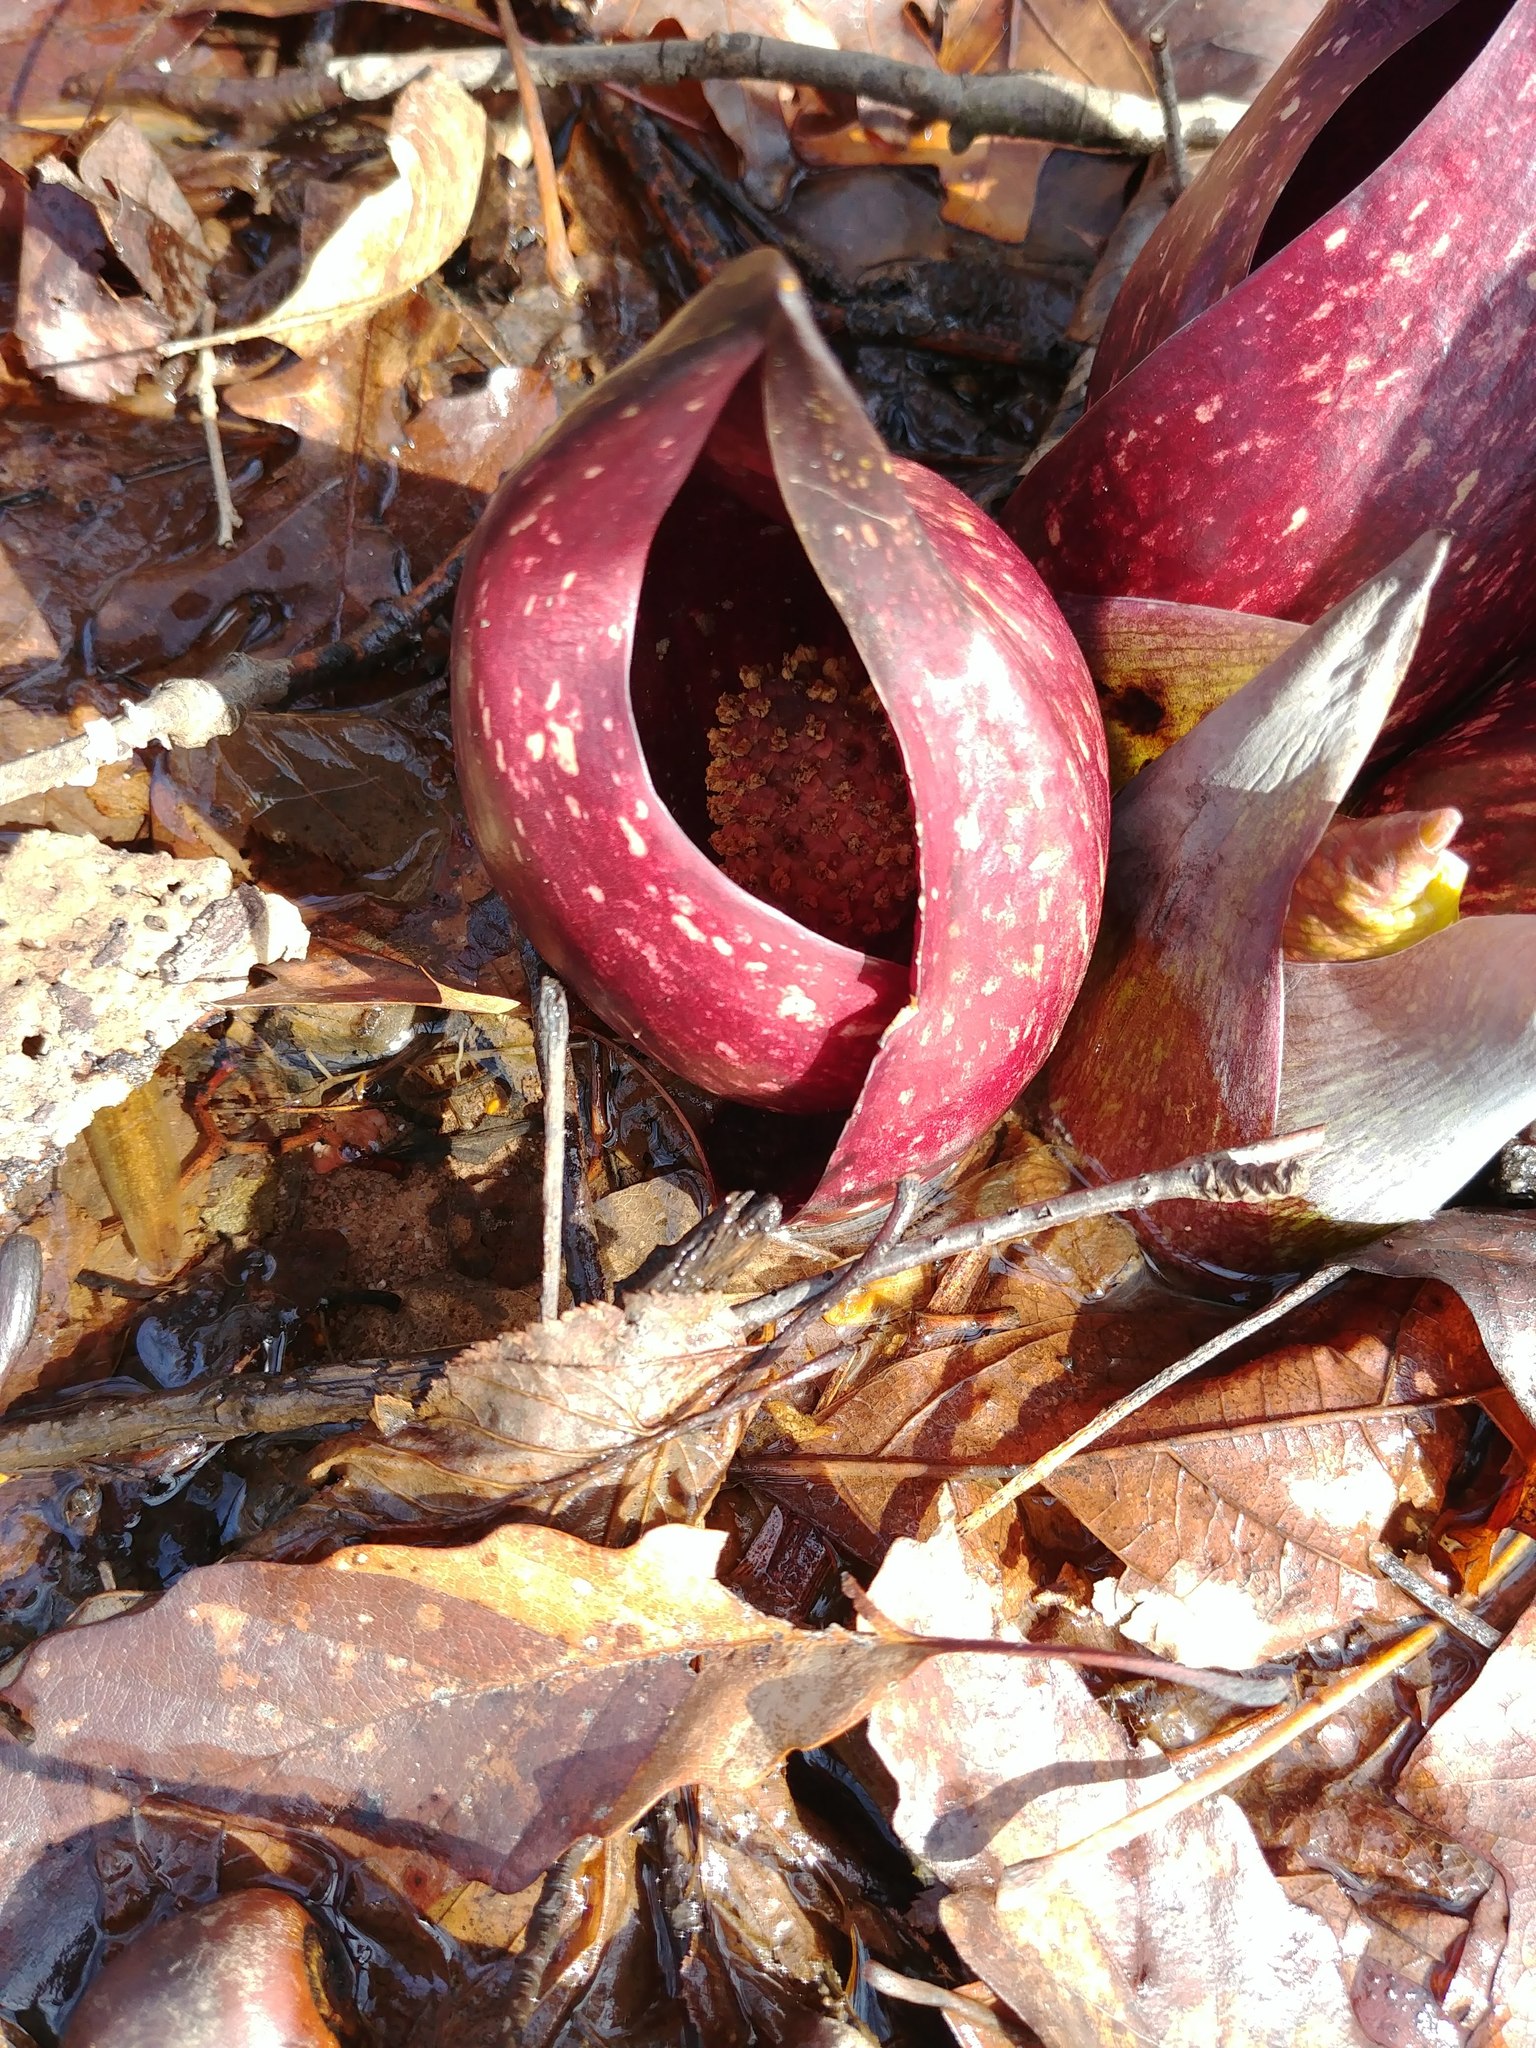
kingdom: Plantae
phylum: Tracheophyta
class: Liliopsida
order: Alismatales
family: Araceae
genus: Symplocarpus
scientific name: Symplocarpus foetidus
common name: Eastern skunk cabbage
